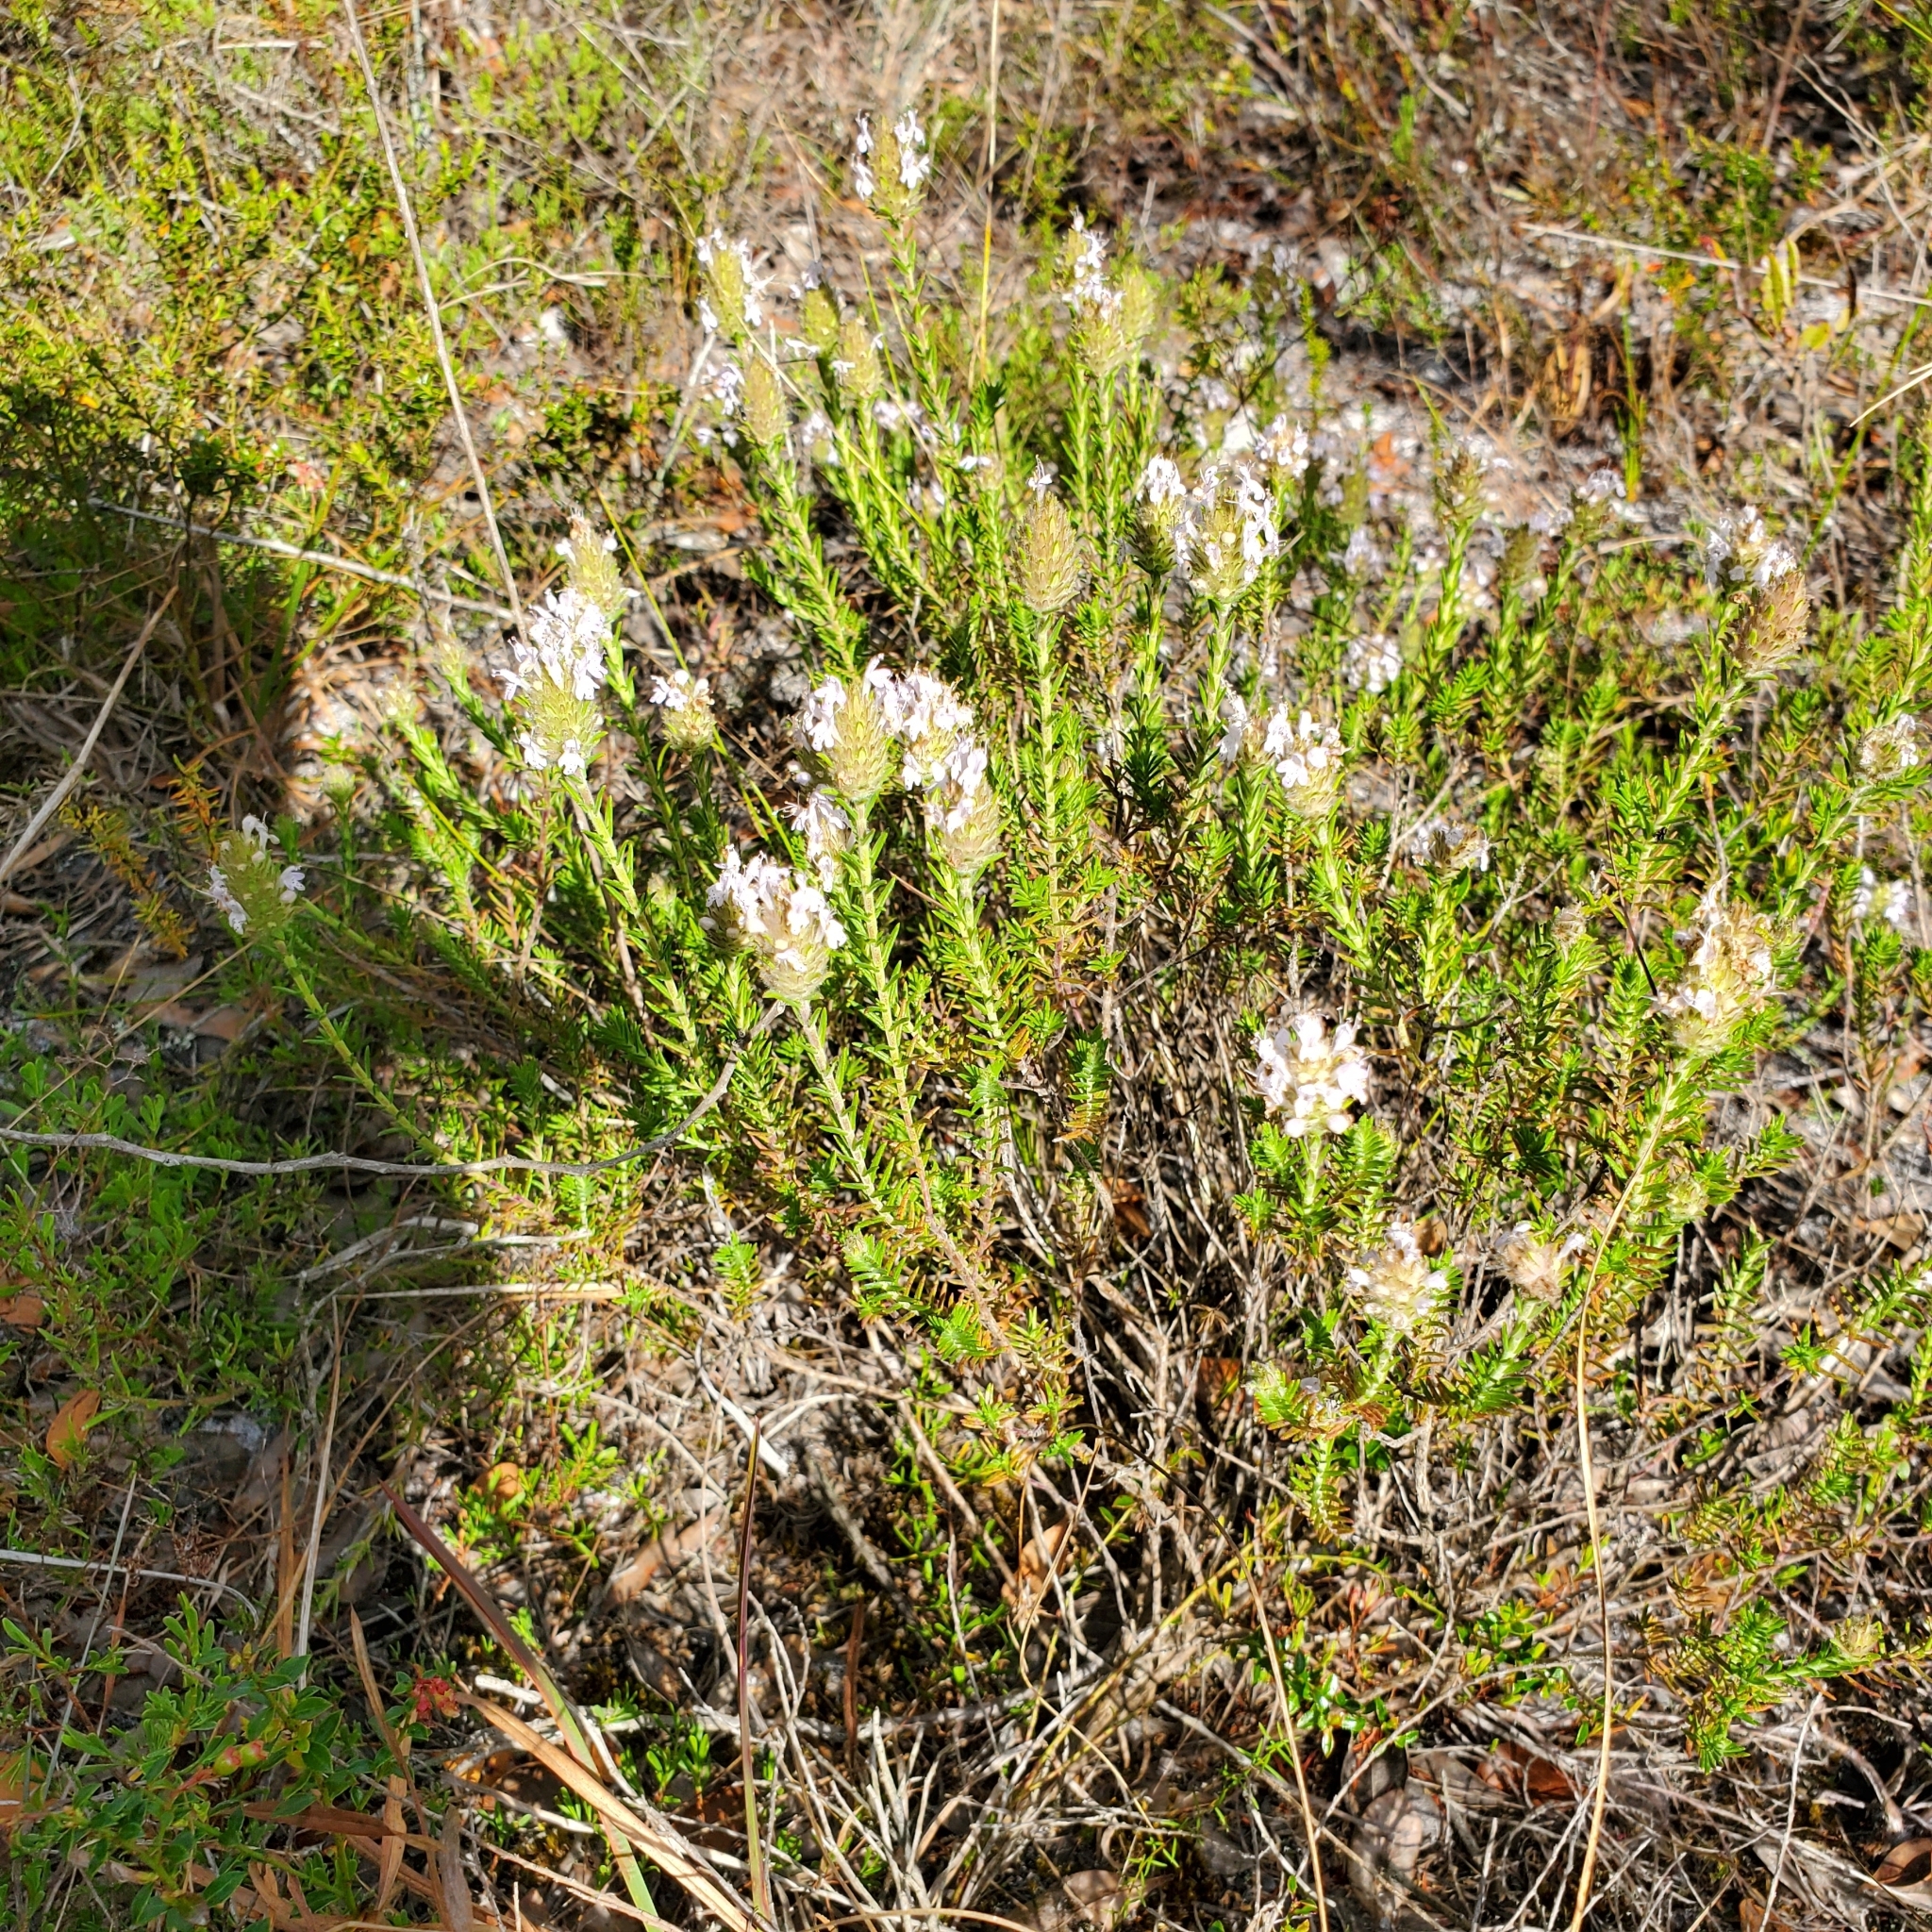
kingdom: Plantae
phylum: Tracheophyta
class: Magnoliopsida
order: Lamiales
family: Lamiaceae
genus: Piloblephis
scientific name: Piloblephis rigida
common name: Wild pennyroyal
